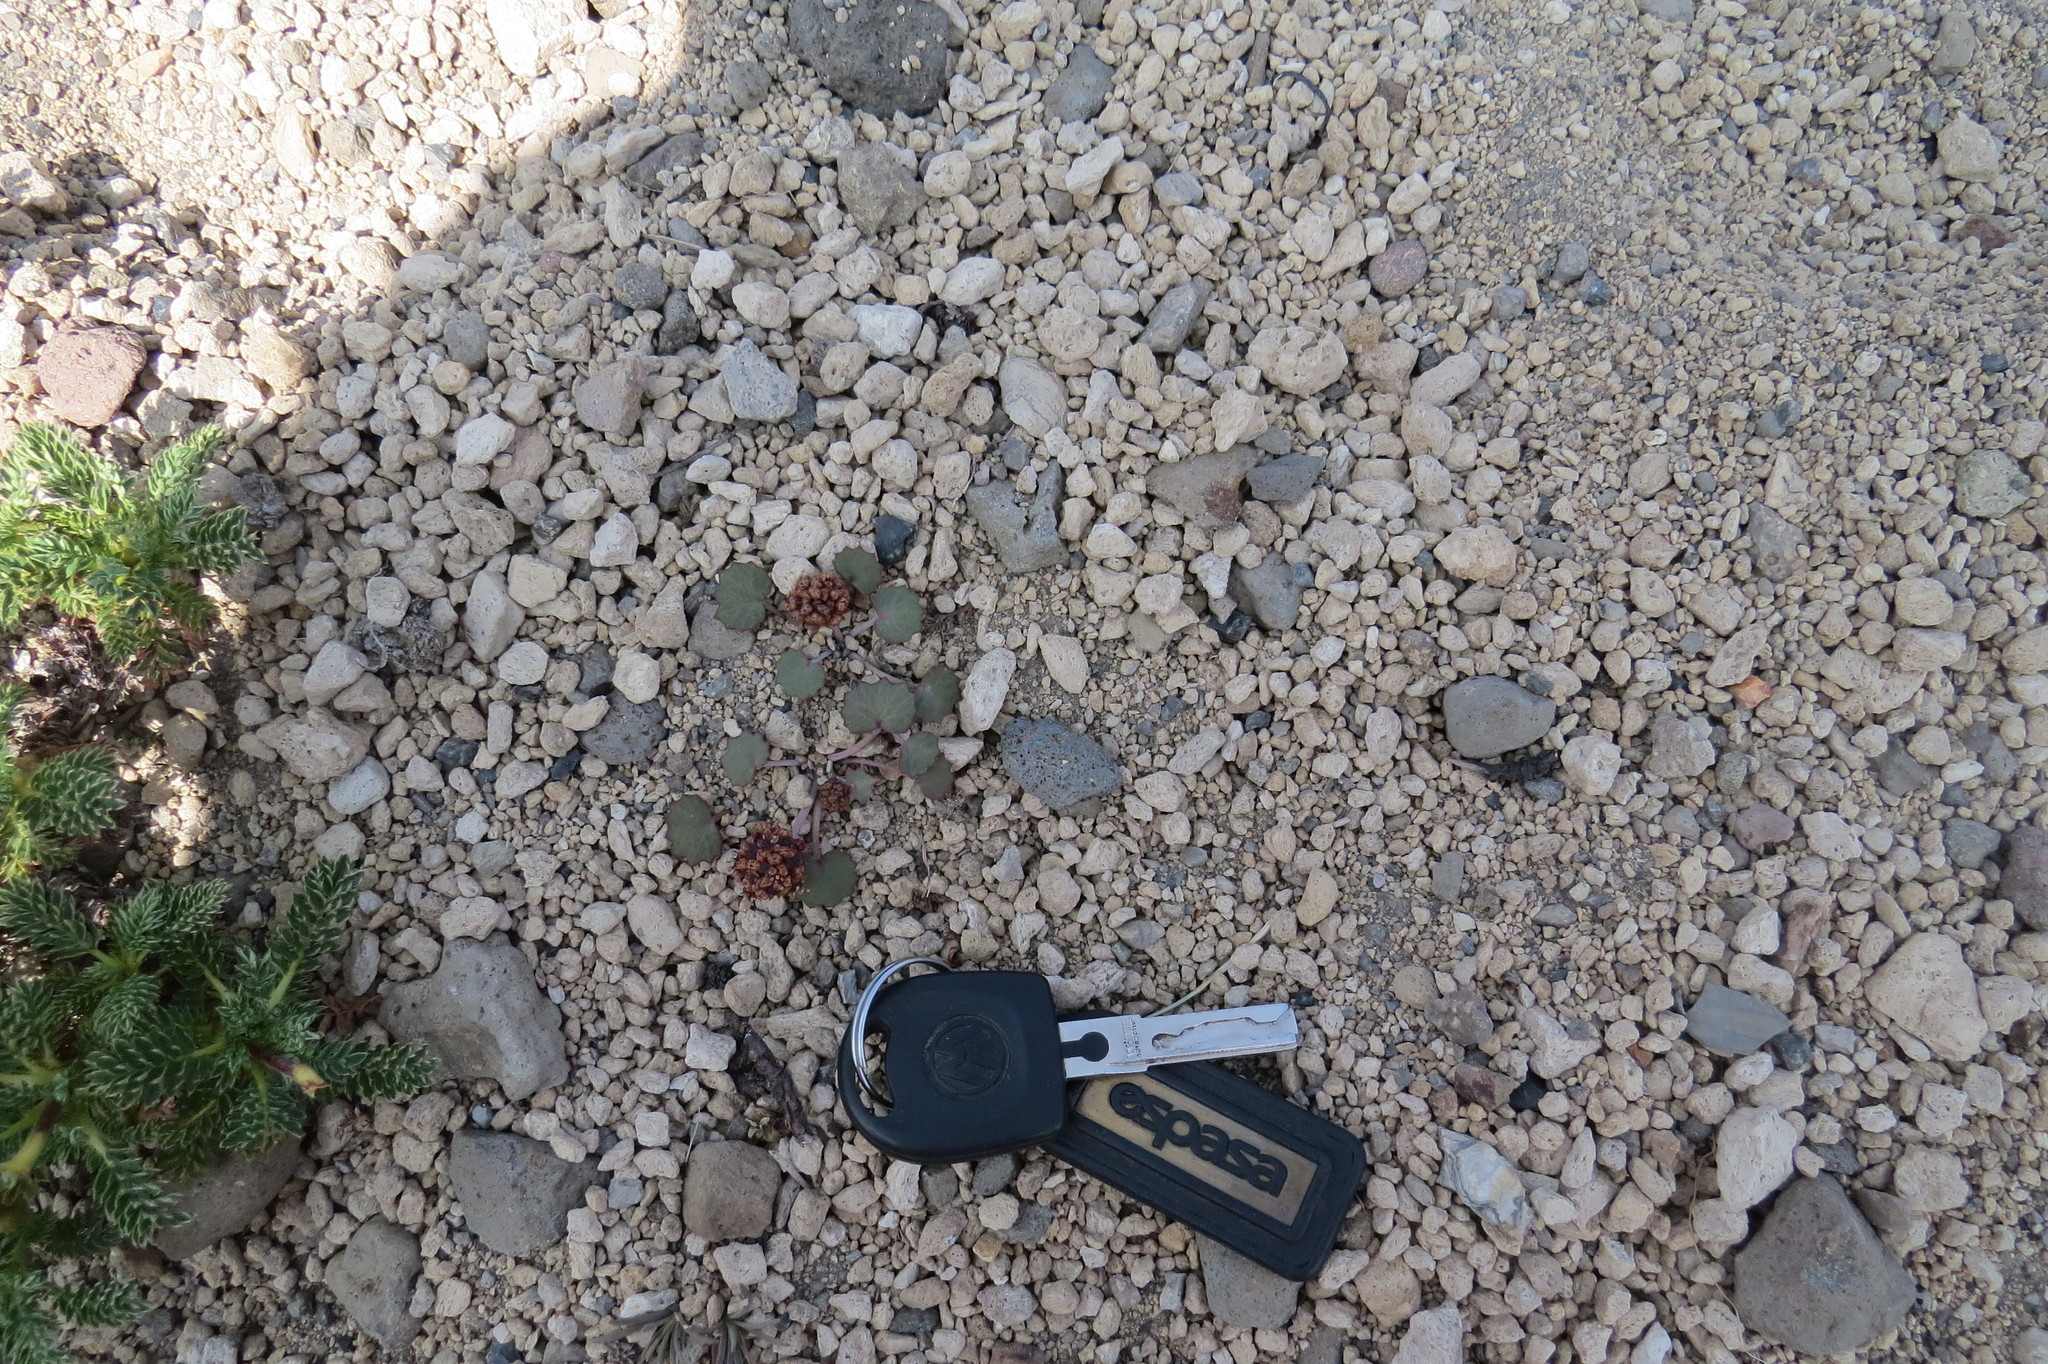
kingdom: Plantae
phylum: Tracheophyta
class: Magnoliopsida
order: Apiales
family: Apiaceae
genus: Pozoa
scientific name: Pozoa coriacea
